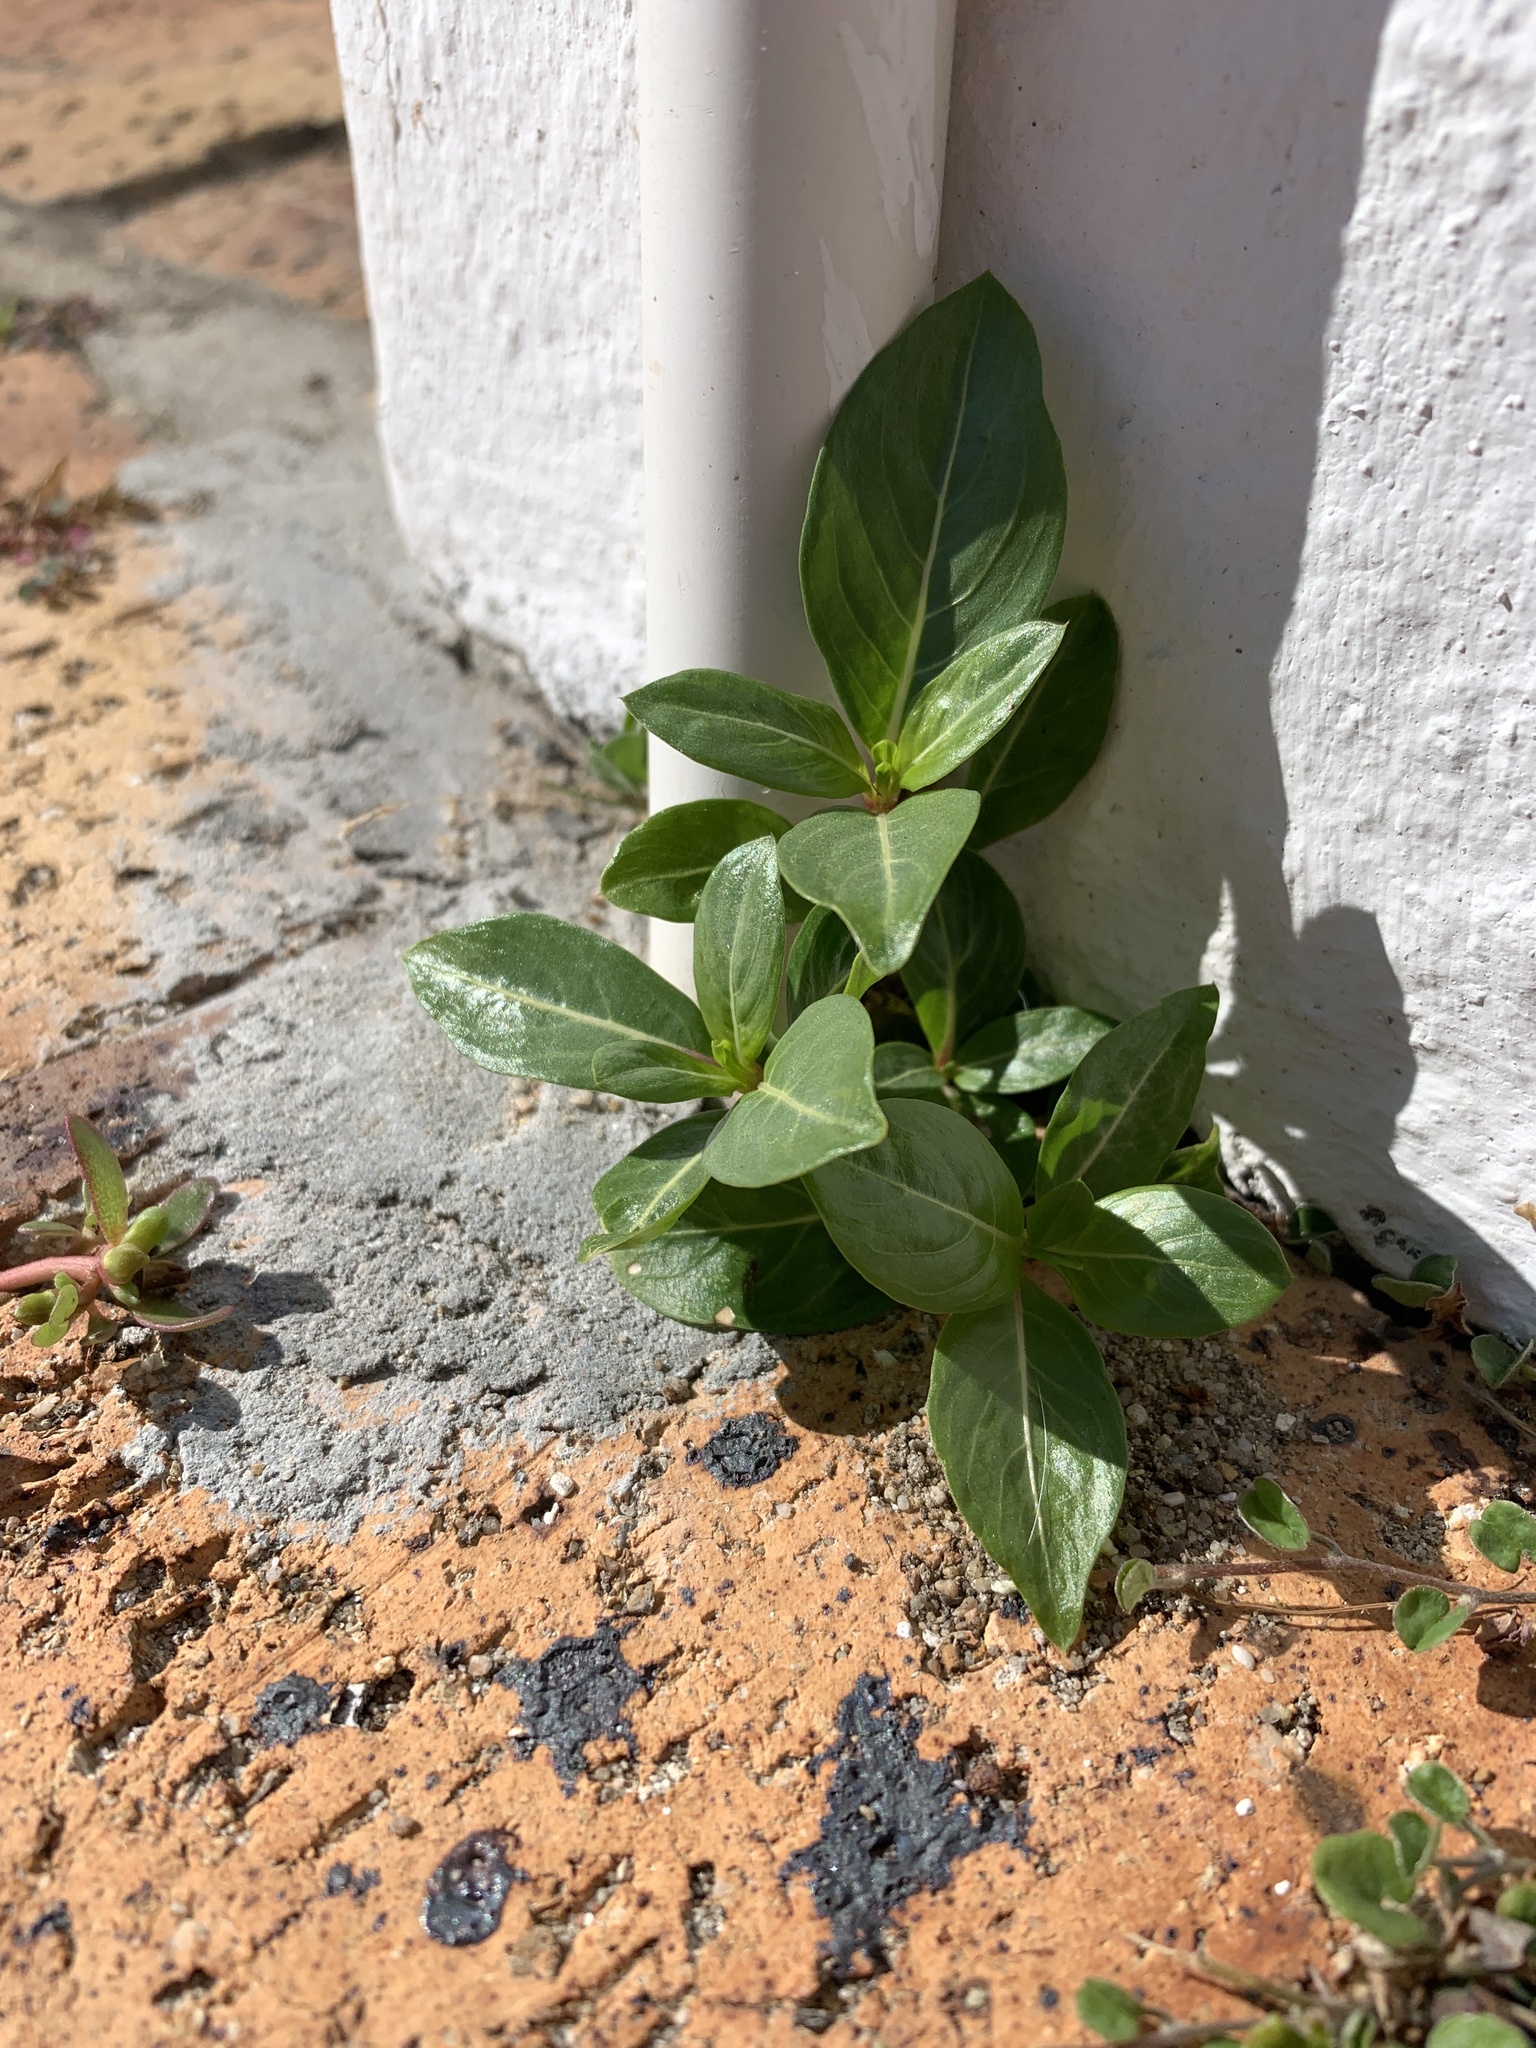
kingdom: Plantae
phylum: Tracheophyta
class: Magnoliopsida
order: Gentianales
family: Apocynaceae
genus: Catharanthus
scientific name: Catharanthus roseus
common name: Madagascar periwinkle
